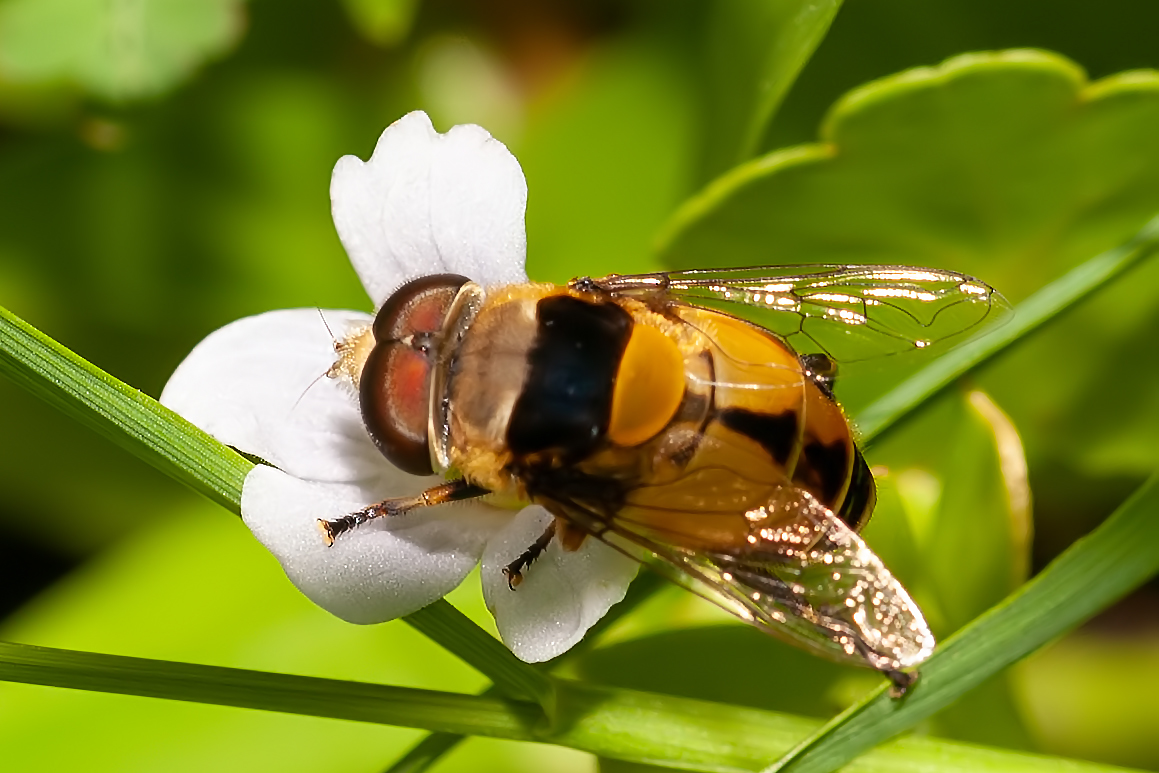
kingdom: Animalia
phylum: Arthropoda
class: Insecta
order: Diptera
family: Syrphidae
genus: Palpada
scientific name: Palpada pusilla
